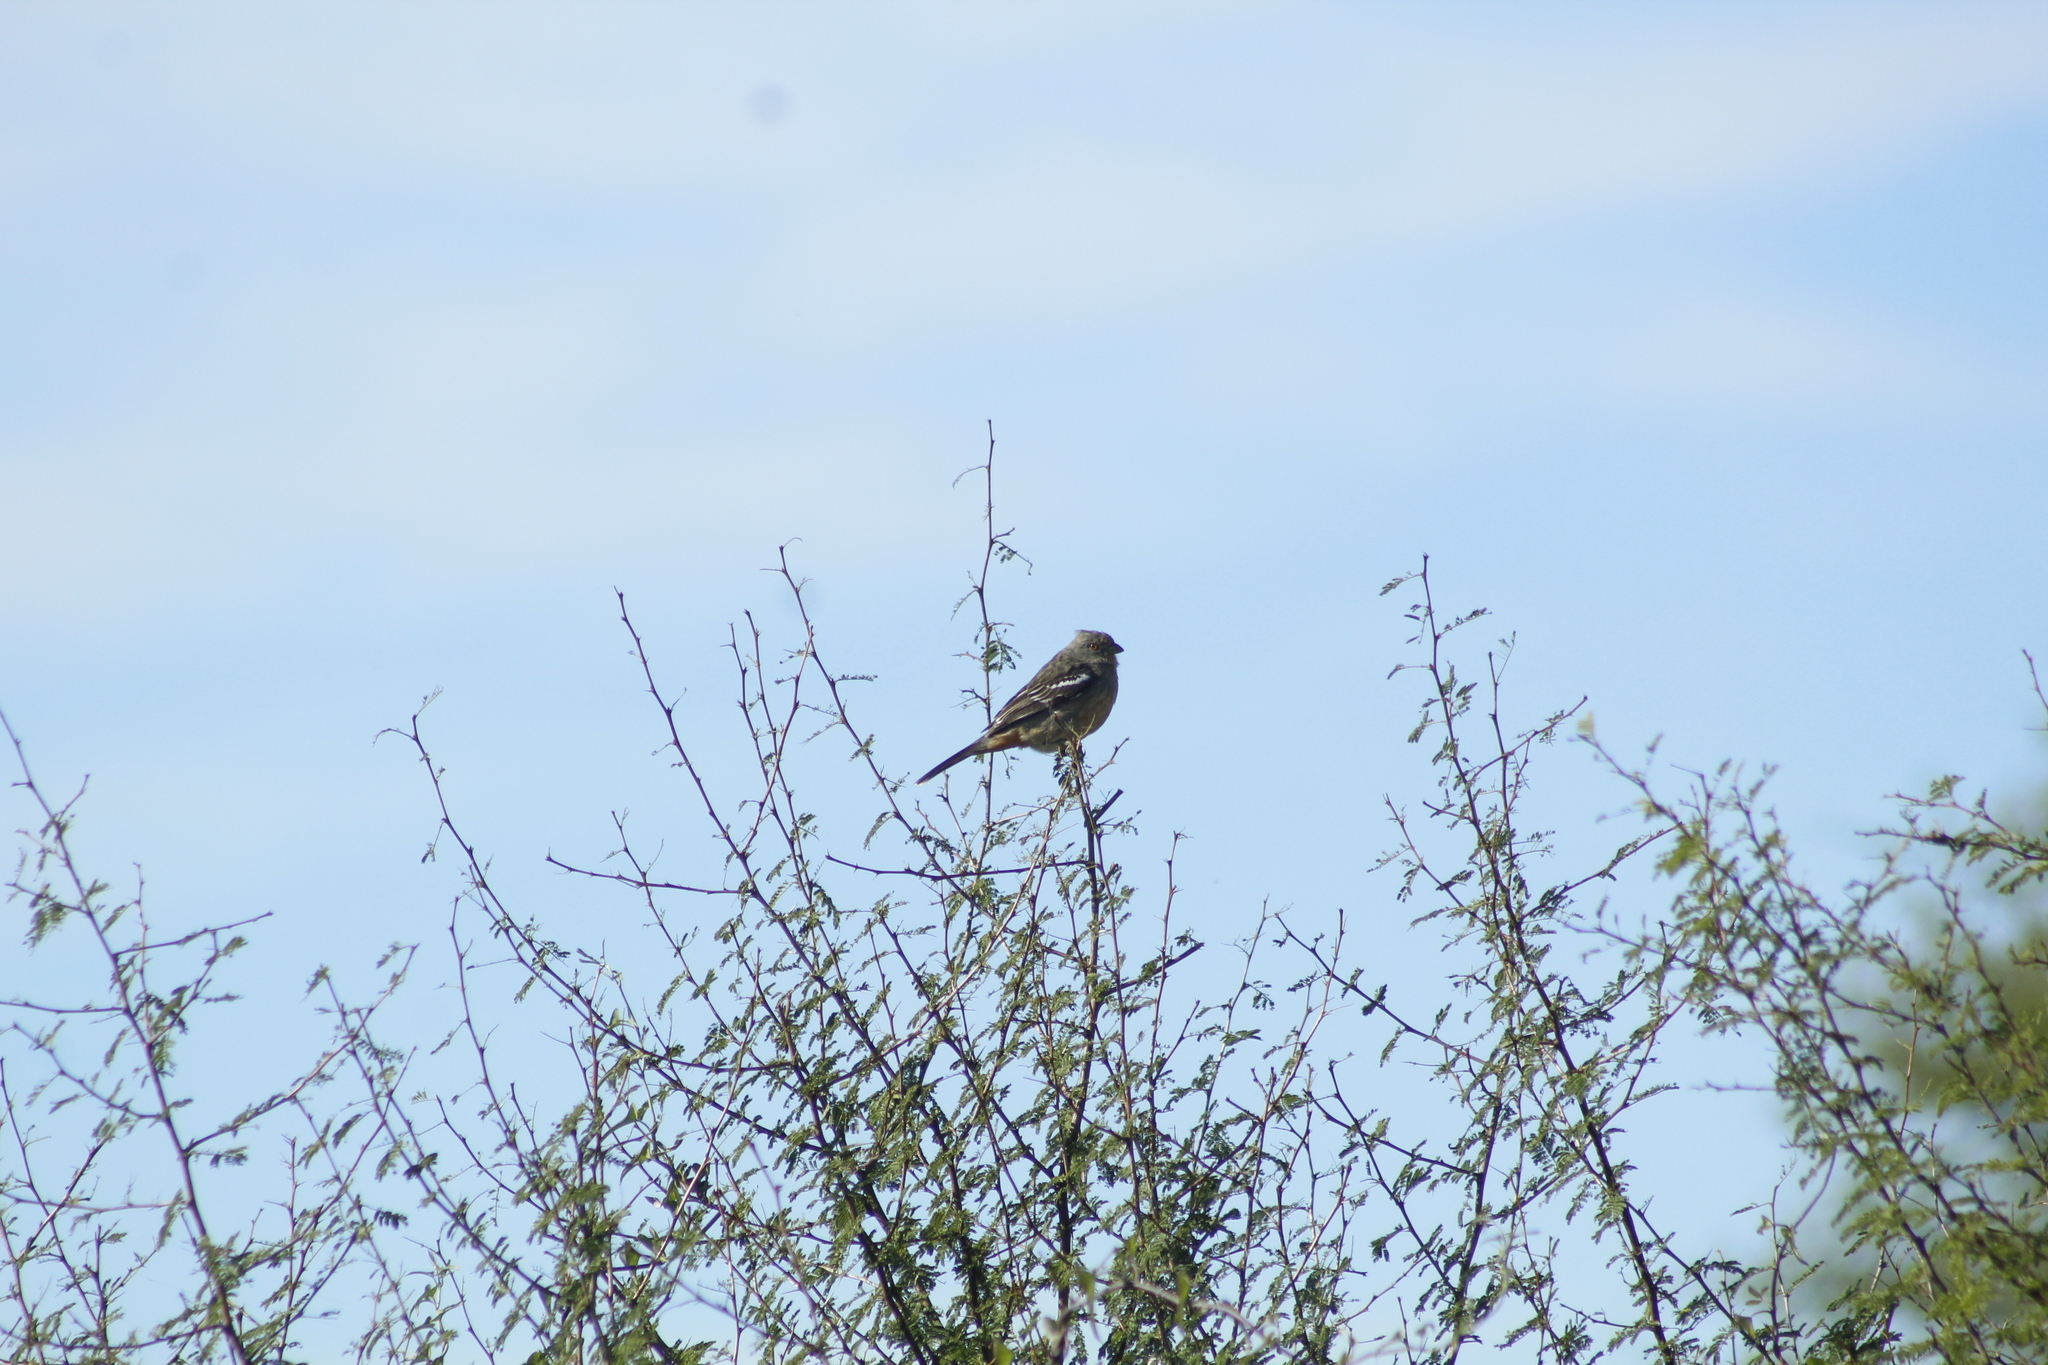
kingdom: Animalia
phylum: Chordata
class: Aves
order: Passeriformes
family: Cotingidae
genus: Phytotoma
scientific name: Phytotoma rutila
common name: White-tipped plantcutter
